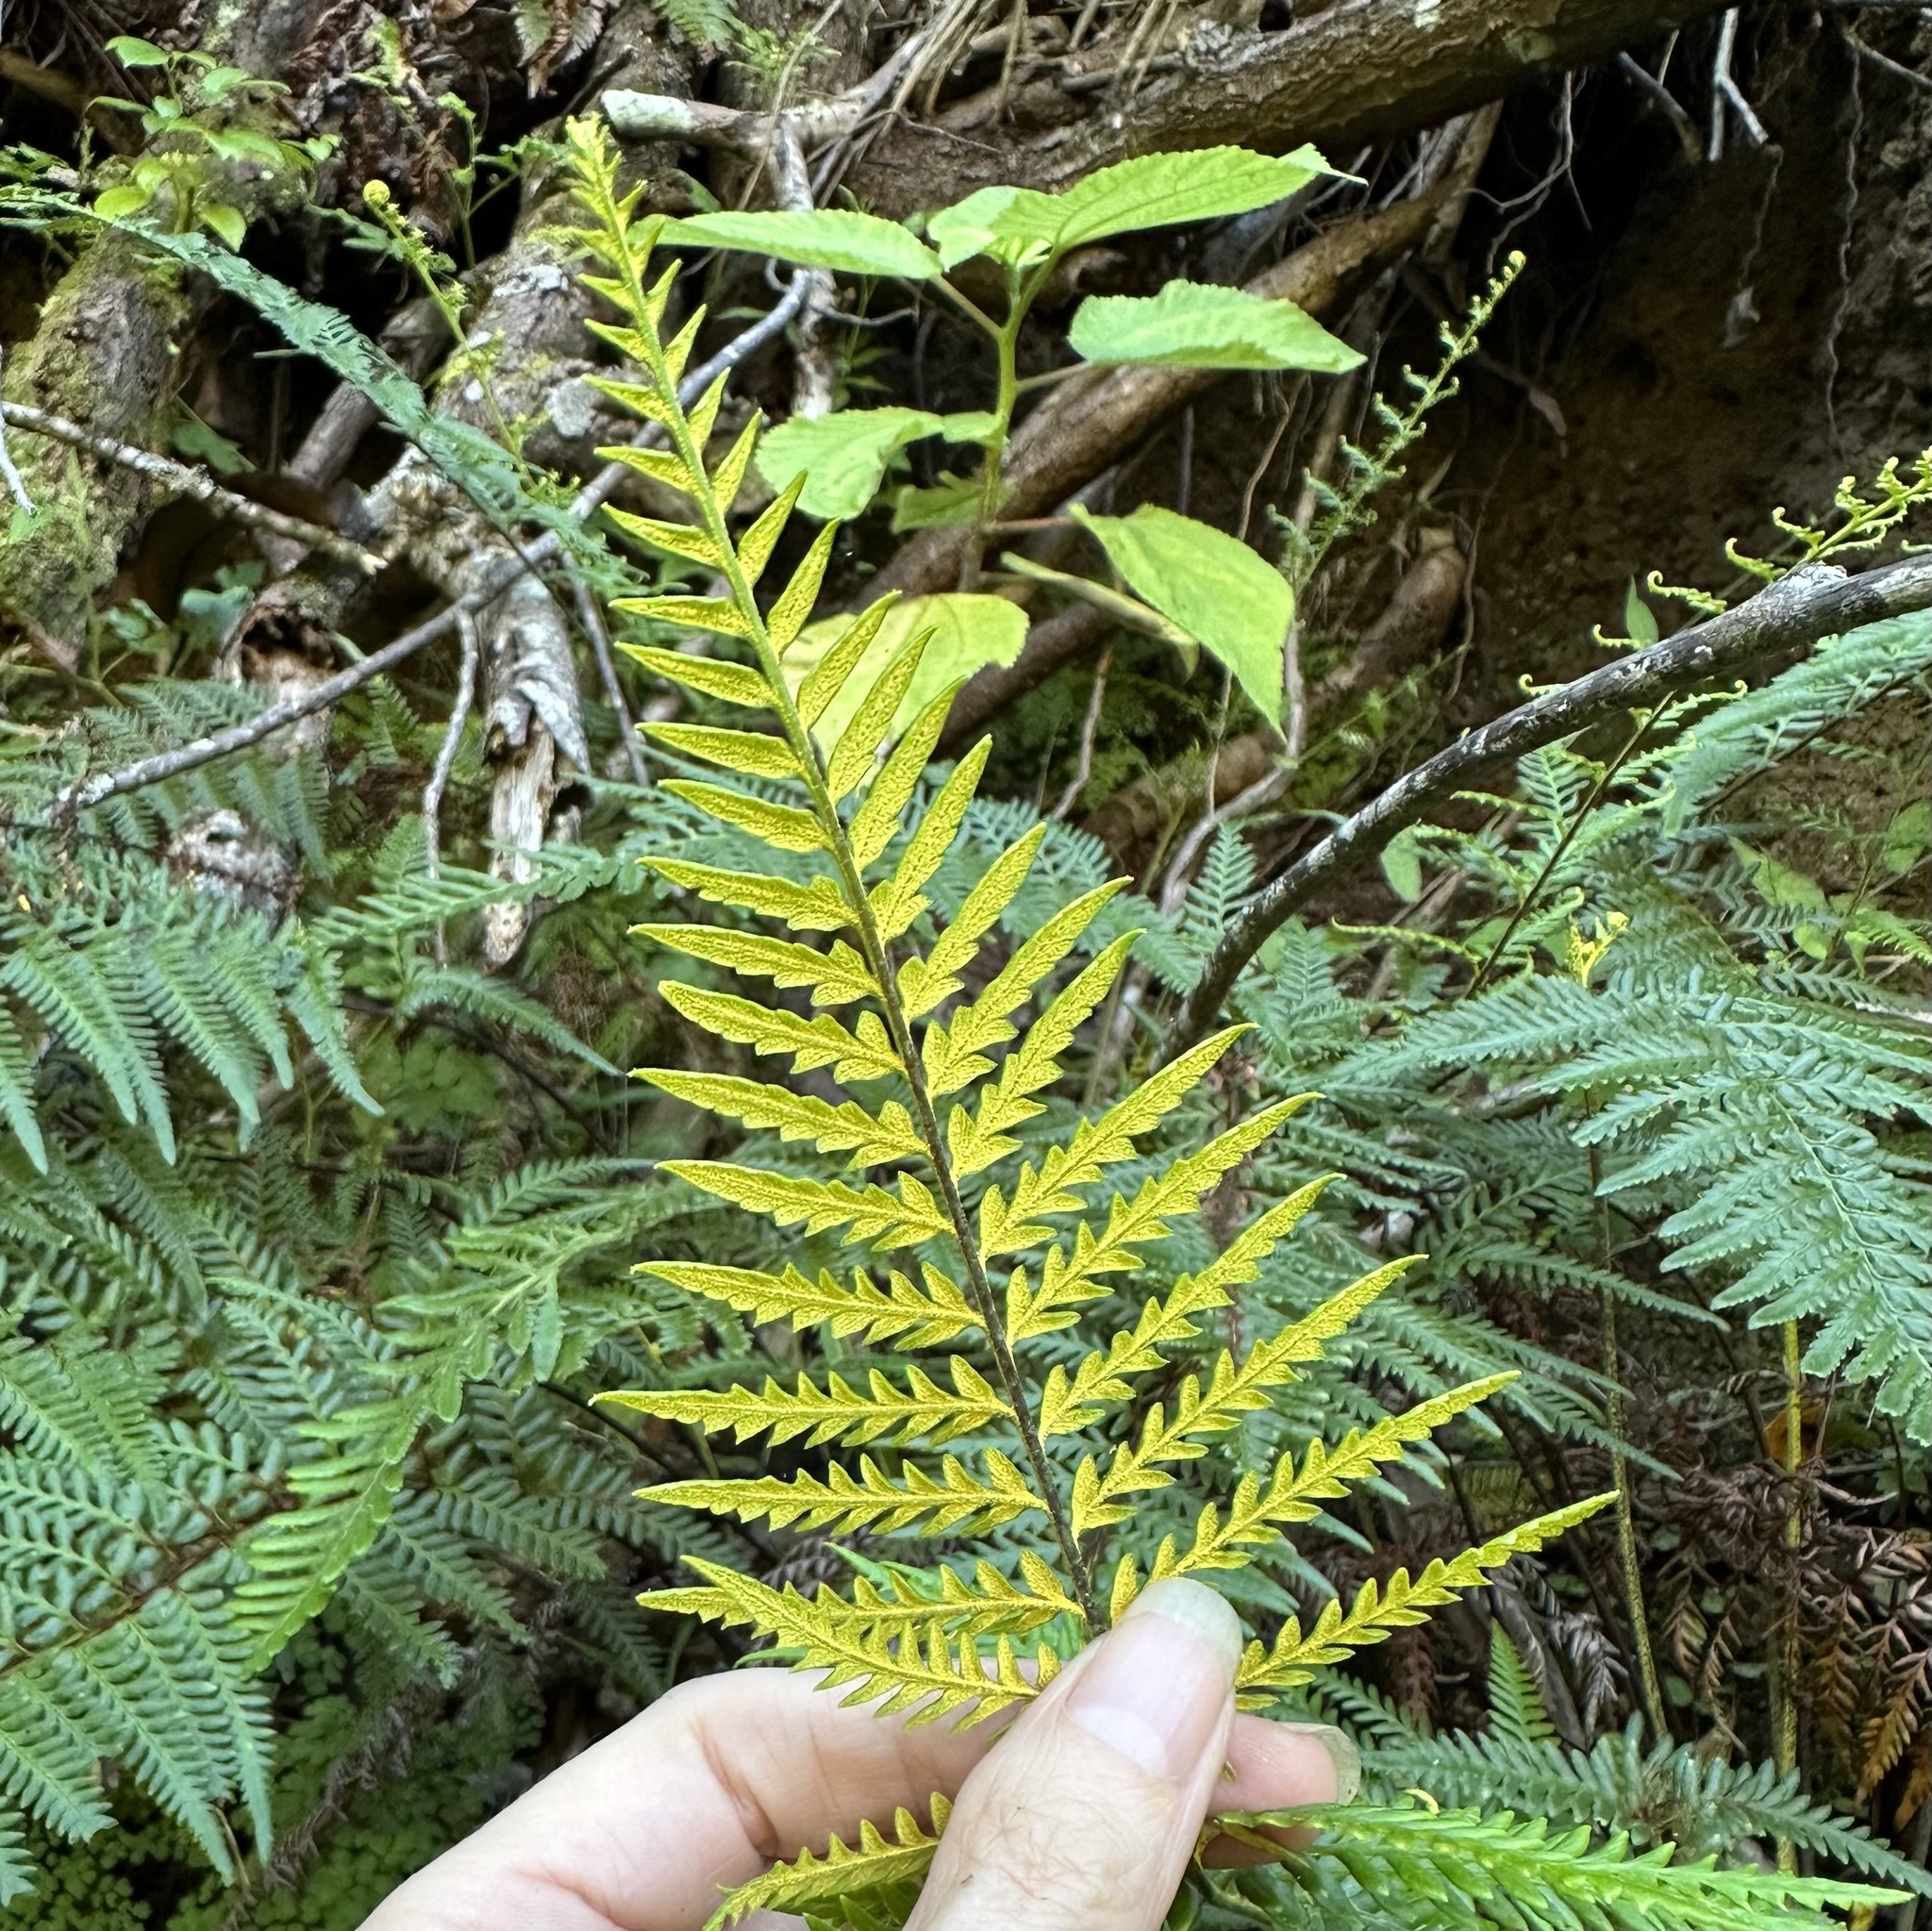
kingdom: Plantae
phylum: Tracheophyta
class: Polypodiopsida
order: Polypodiales
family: Pteridaceae
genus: Pityrogramma
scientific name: Pityrogramma austroamericana
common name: Leatherleaf goldback fern
